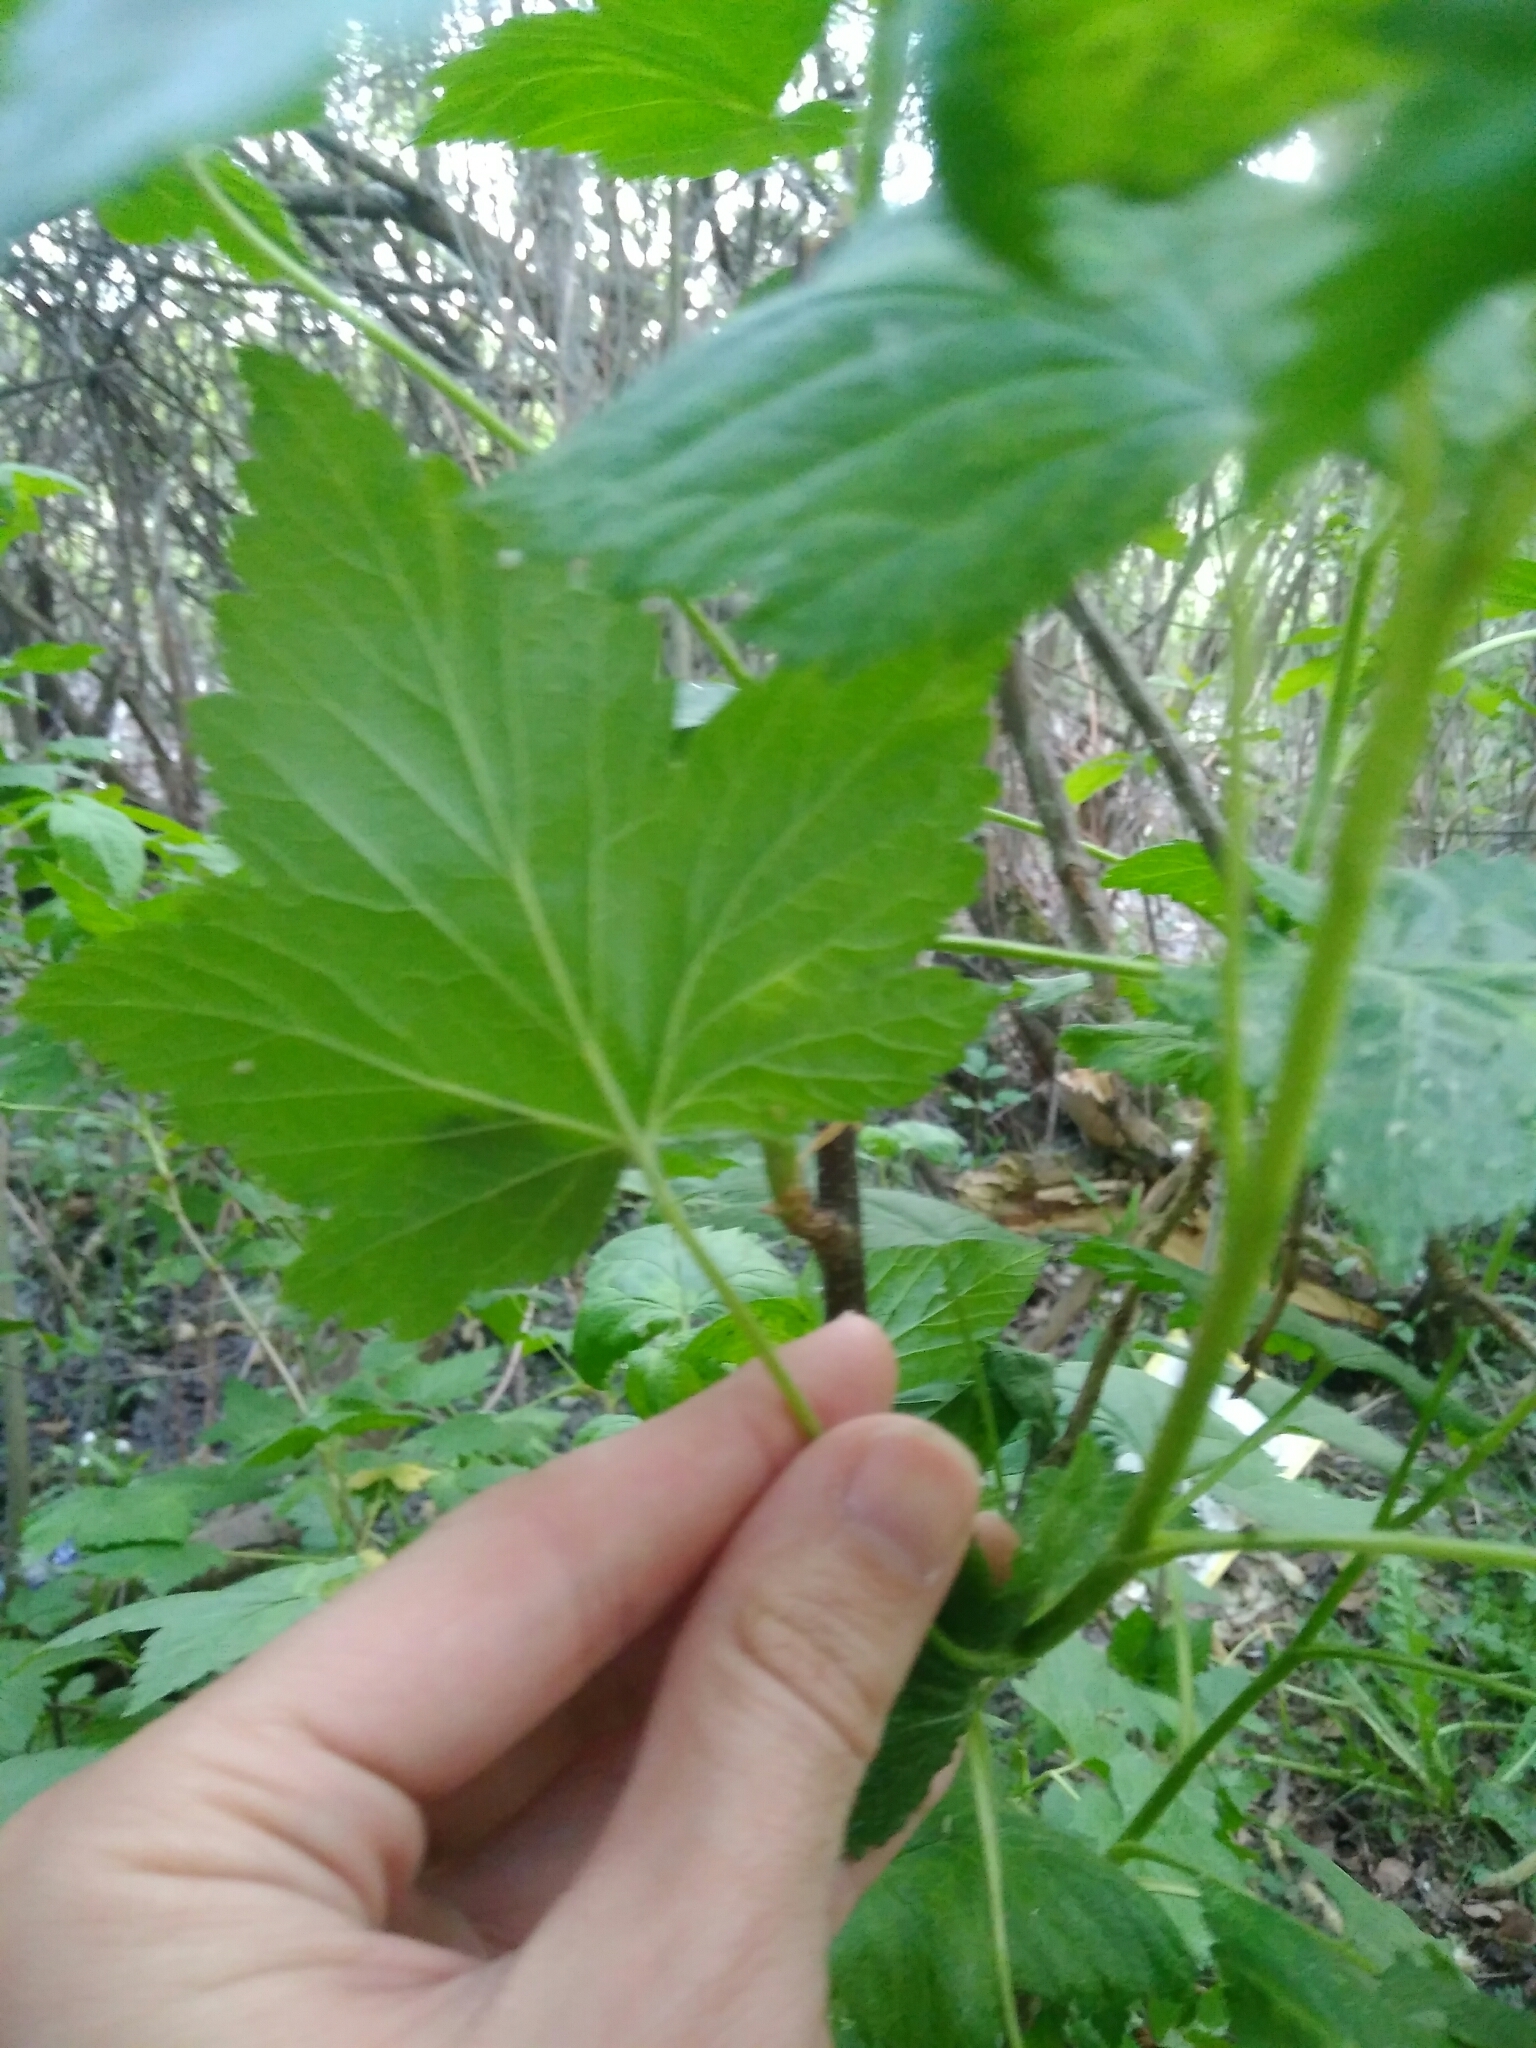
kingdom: Plantae
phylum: Tracheophyta
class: Magnoliopsida
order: Saxifragales
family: Grossulariaceae
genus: Ribes
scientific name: Ribes nigrum
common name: Black currant
